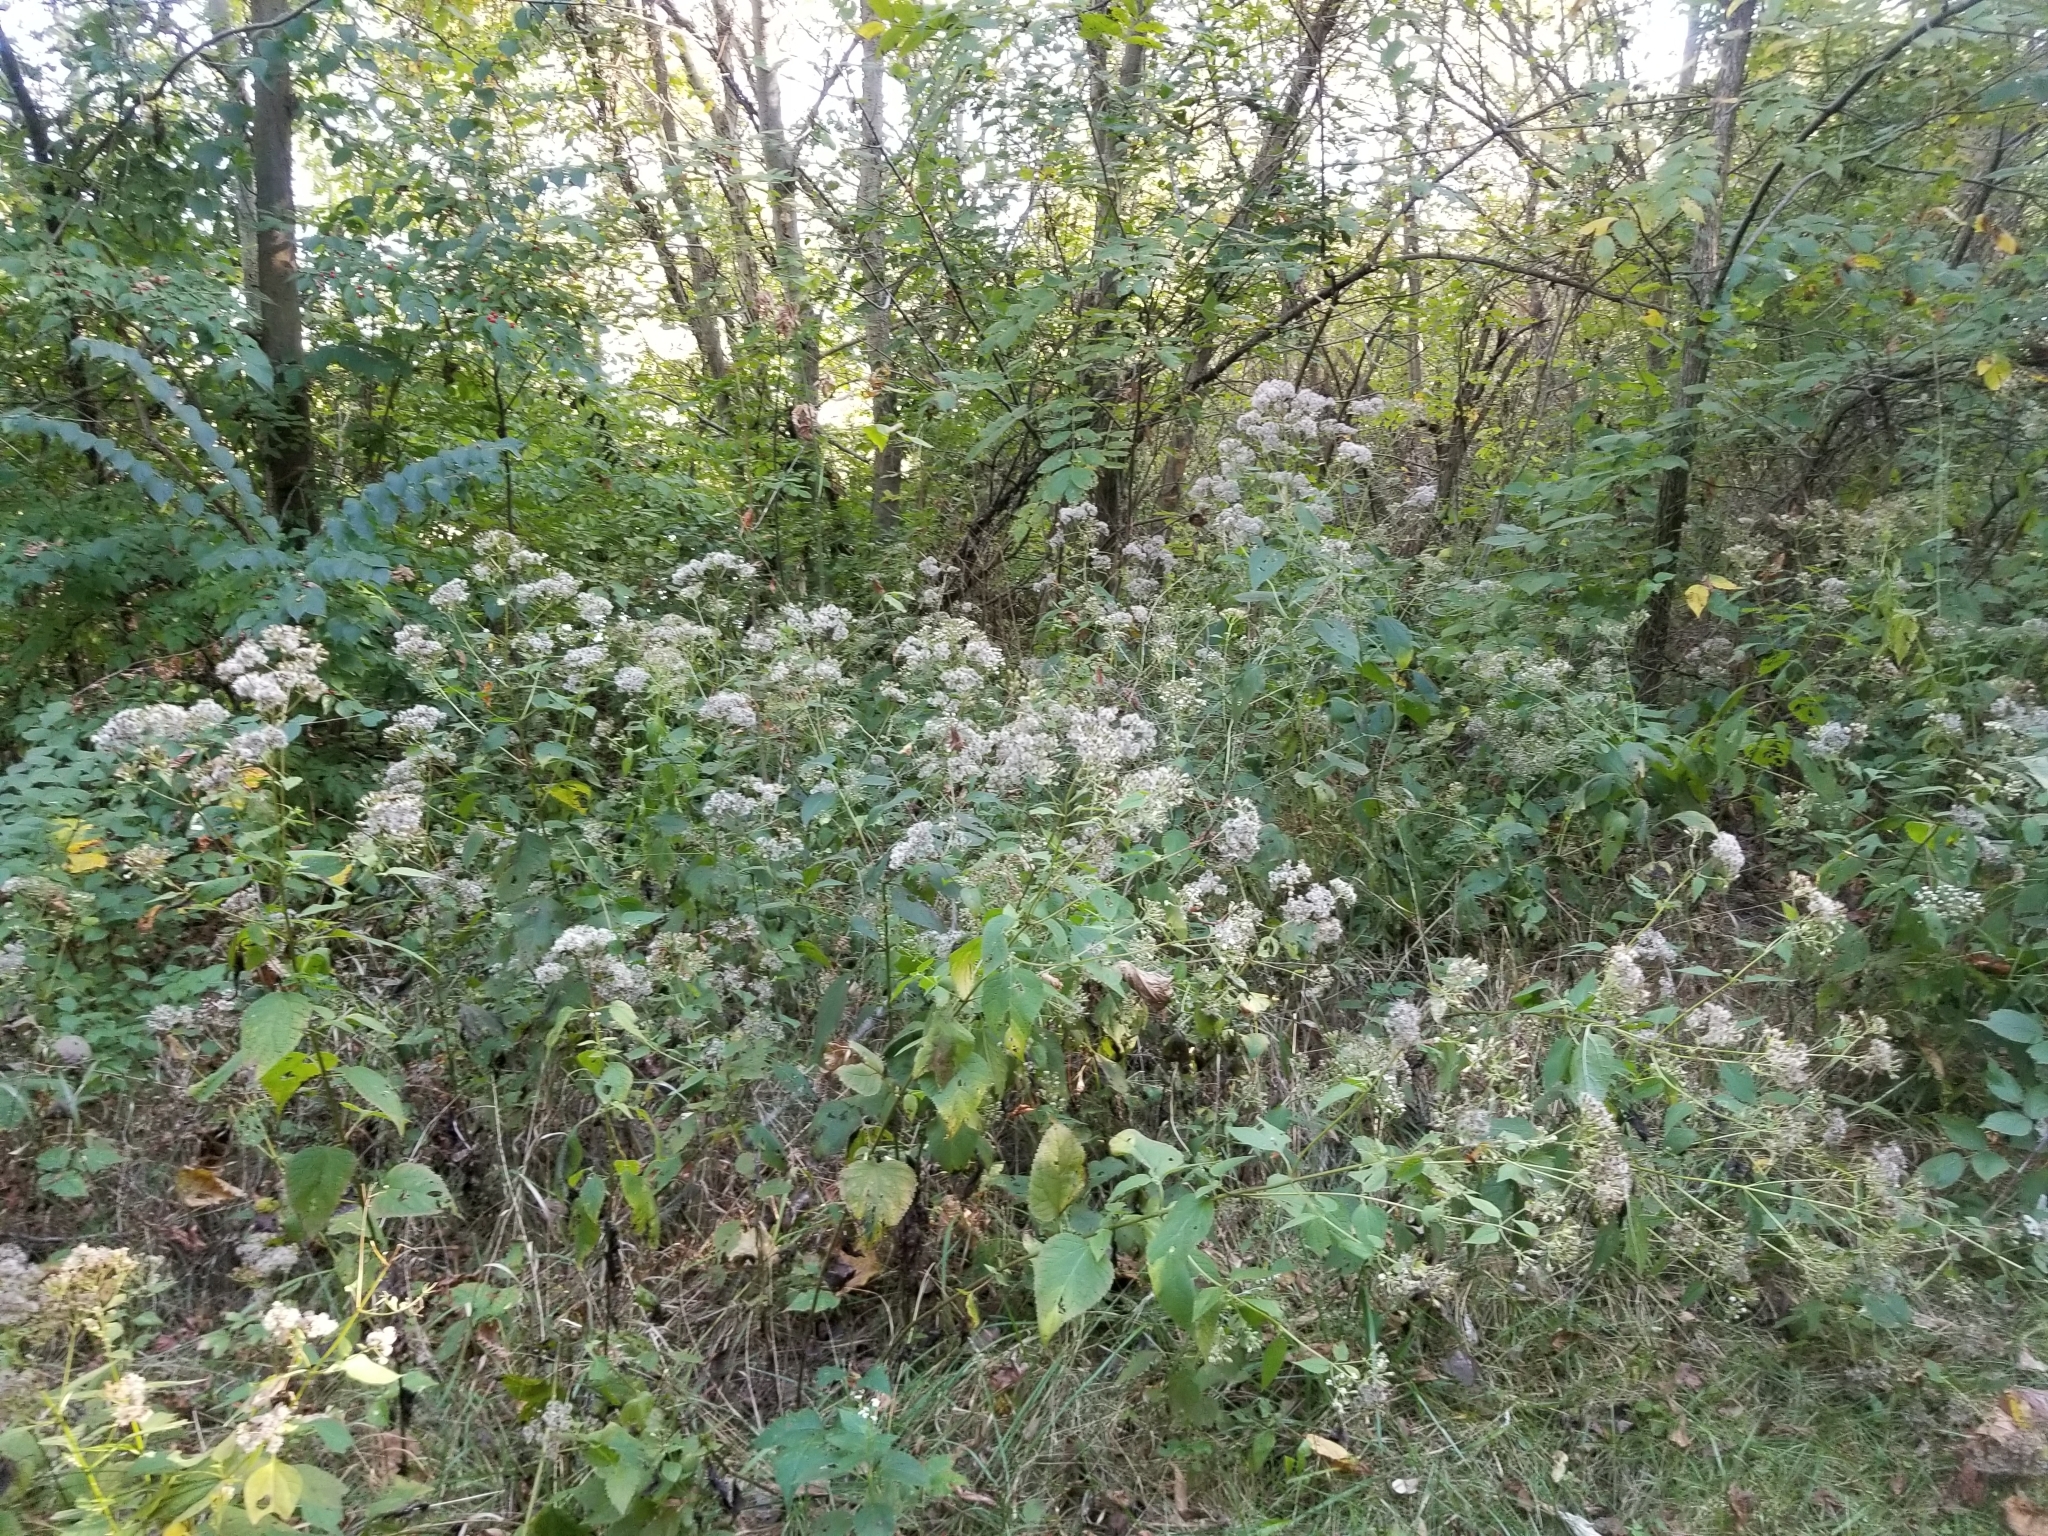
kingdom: Plantae
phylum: Tracheophyta
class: Magnoliopsida
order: Asterales
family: Asteraceae
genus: Ageratina
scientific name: Ageratina altissima
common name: White snakeroot
